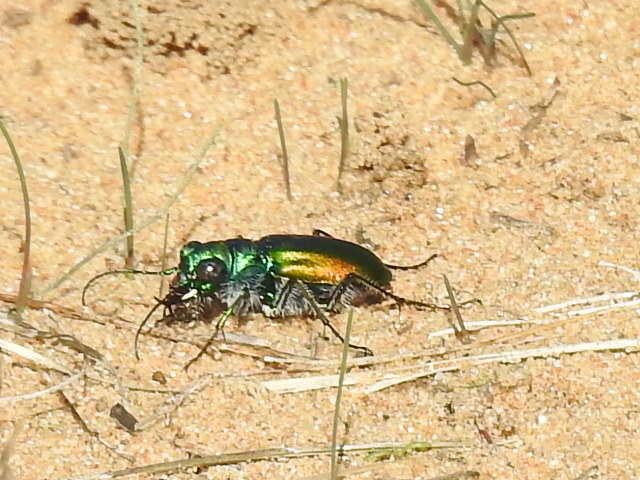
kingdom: Animalia
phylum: Arthropoda
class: Insecta
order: Coleoptera
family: Carabidae
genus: Cicindela
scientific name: Cicindela scutellaris
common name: Festive tiger beetle
